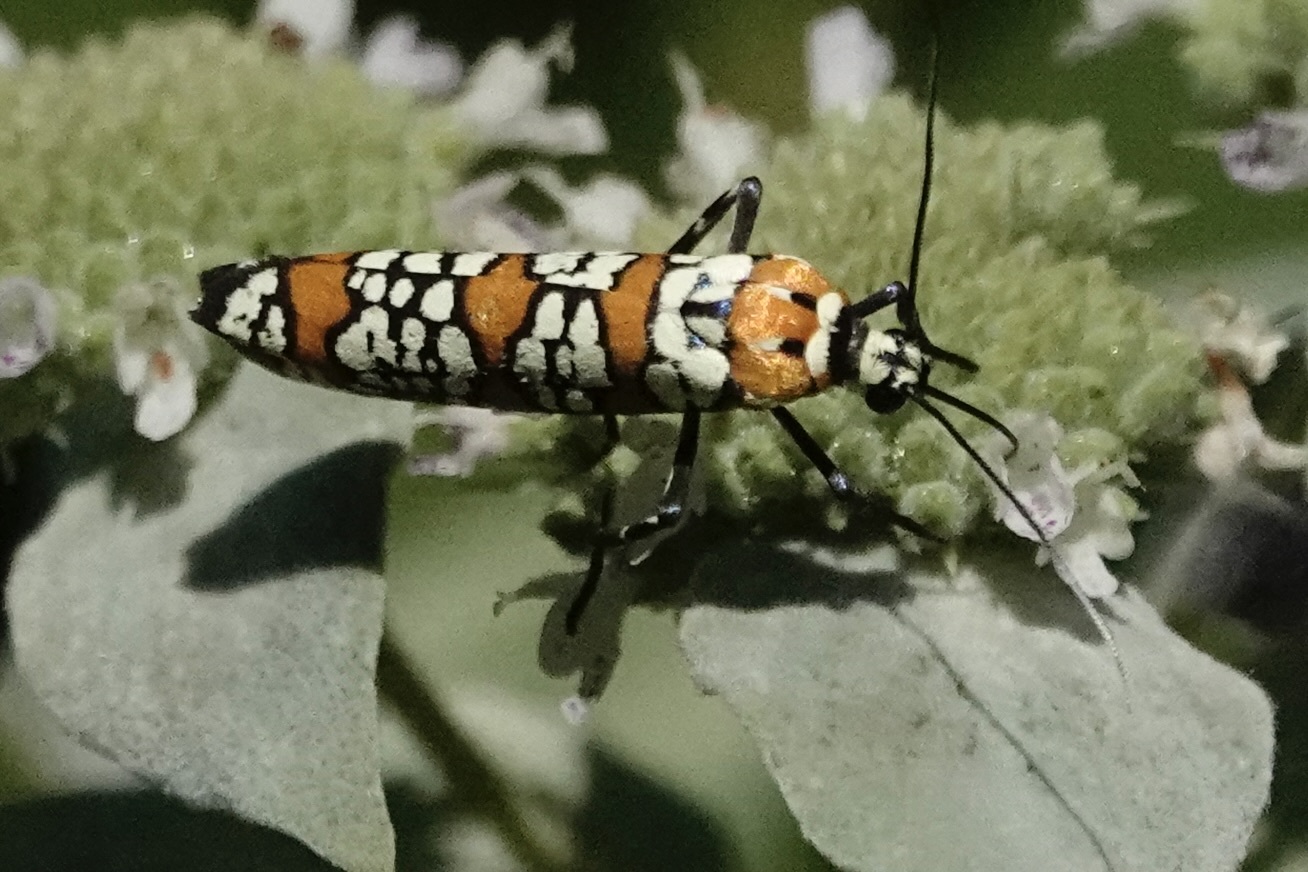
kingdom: Animalia
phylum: Arthropoda
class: Insecta
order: Lepidoptera
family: Attevidae
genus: Atteva
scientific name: Atteva punctella
